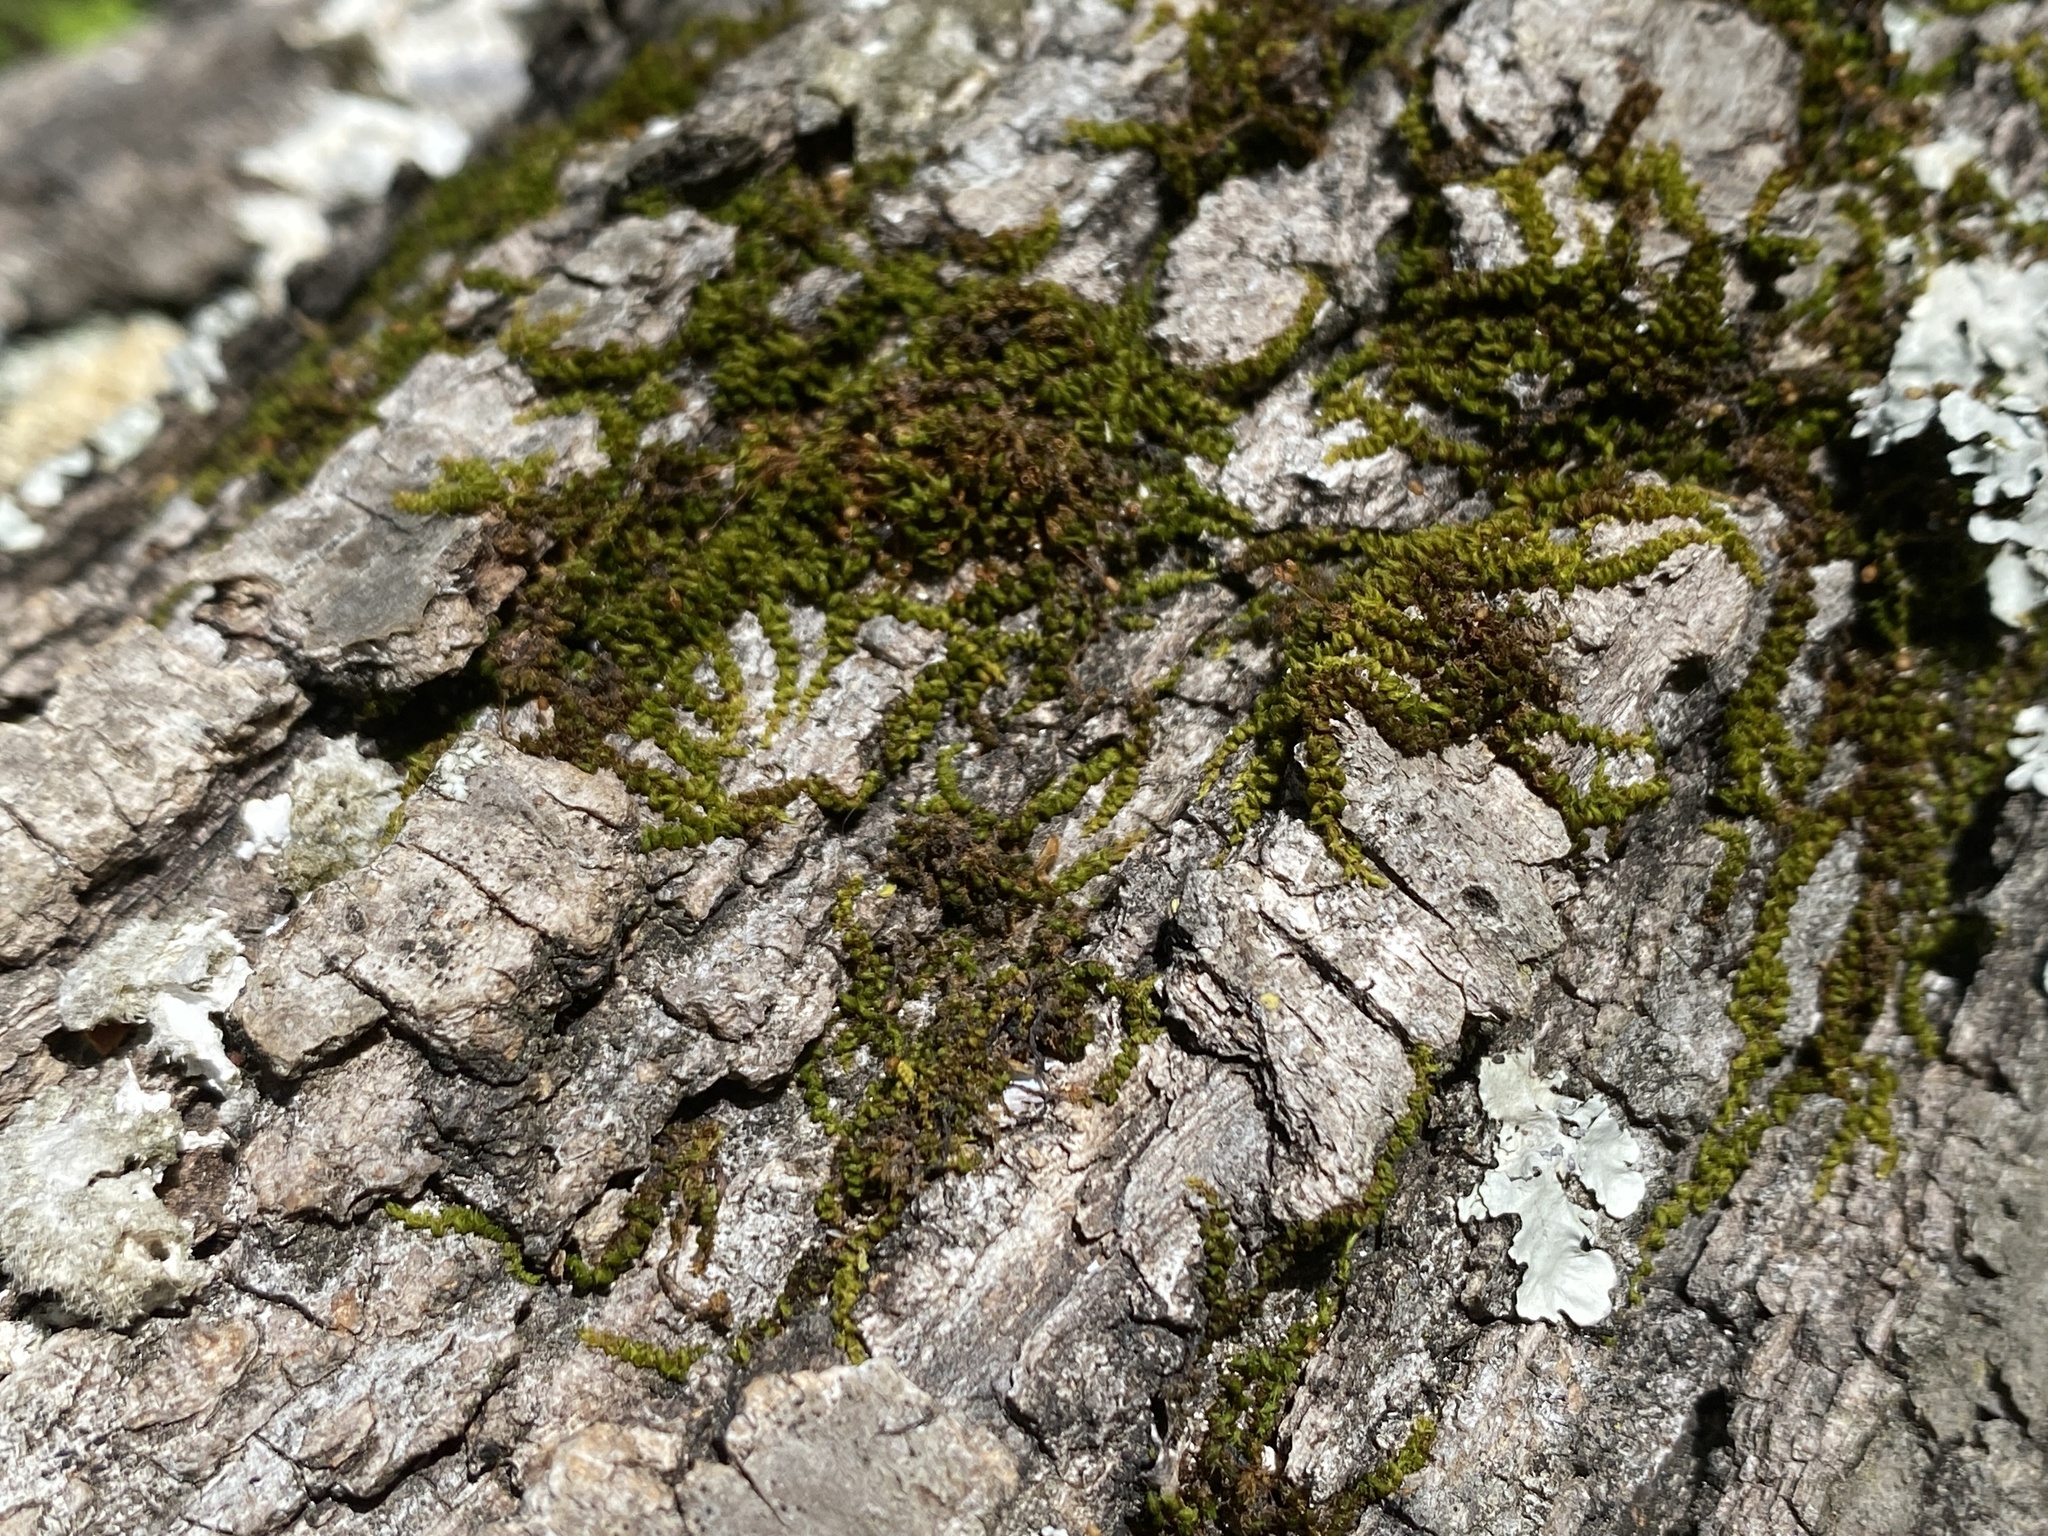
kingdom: Plantae
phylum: Bryophyta
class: Bryopsida
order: Scouleriales
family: Drummondiaceae
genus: Drummondia
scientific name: Drummondia prorepens
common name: Drummond's bark moss
